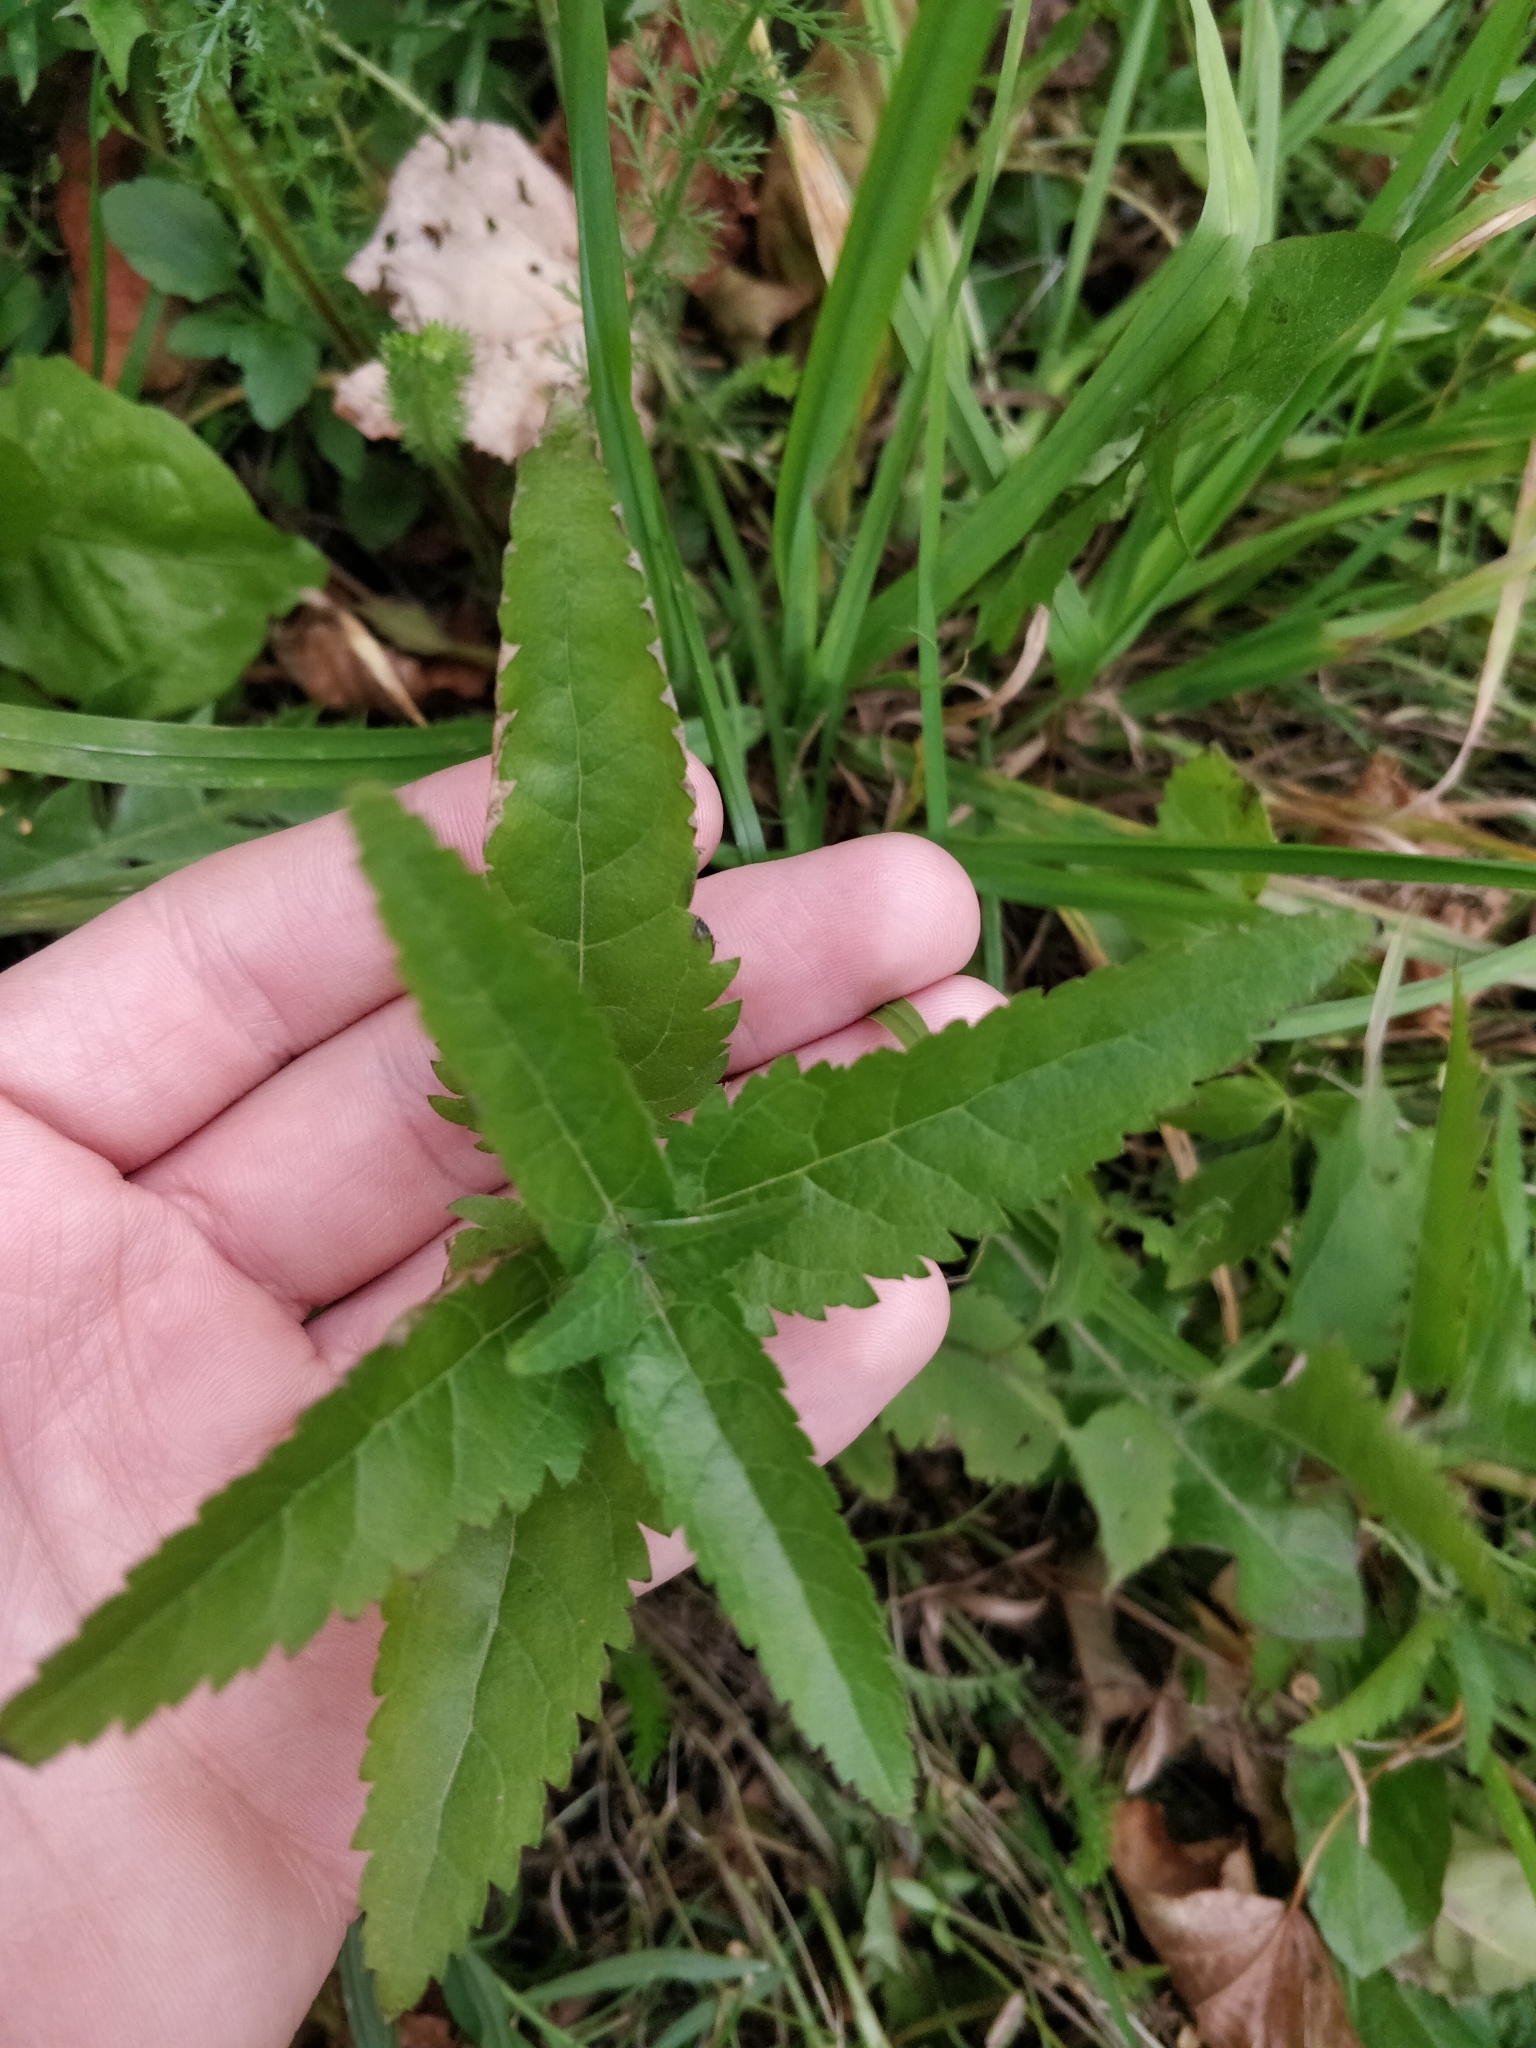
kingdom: Plantae
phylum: Tracheophyta
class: Magnoliopsida
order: Lamiales
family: Plantaginaceae
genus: Veronica
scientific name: Veronica longifolia
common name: Garden speedwell
